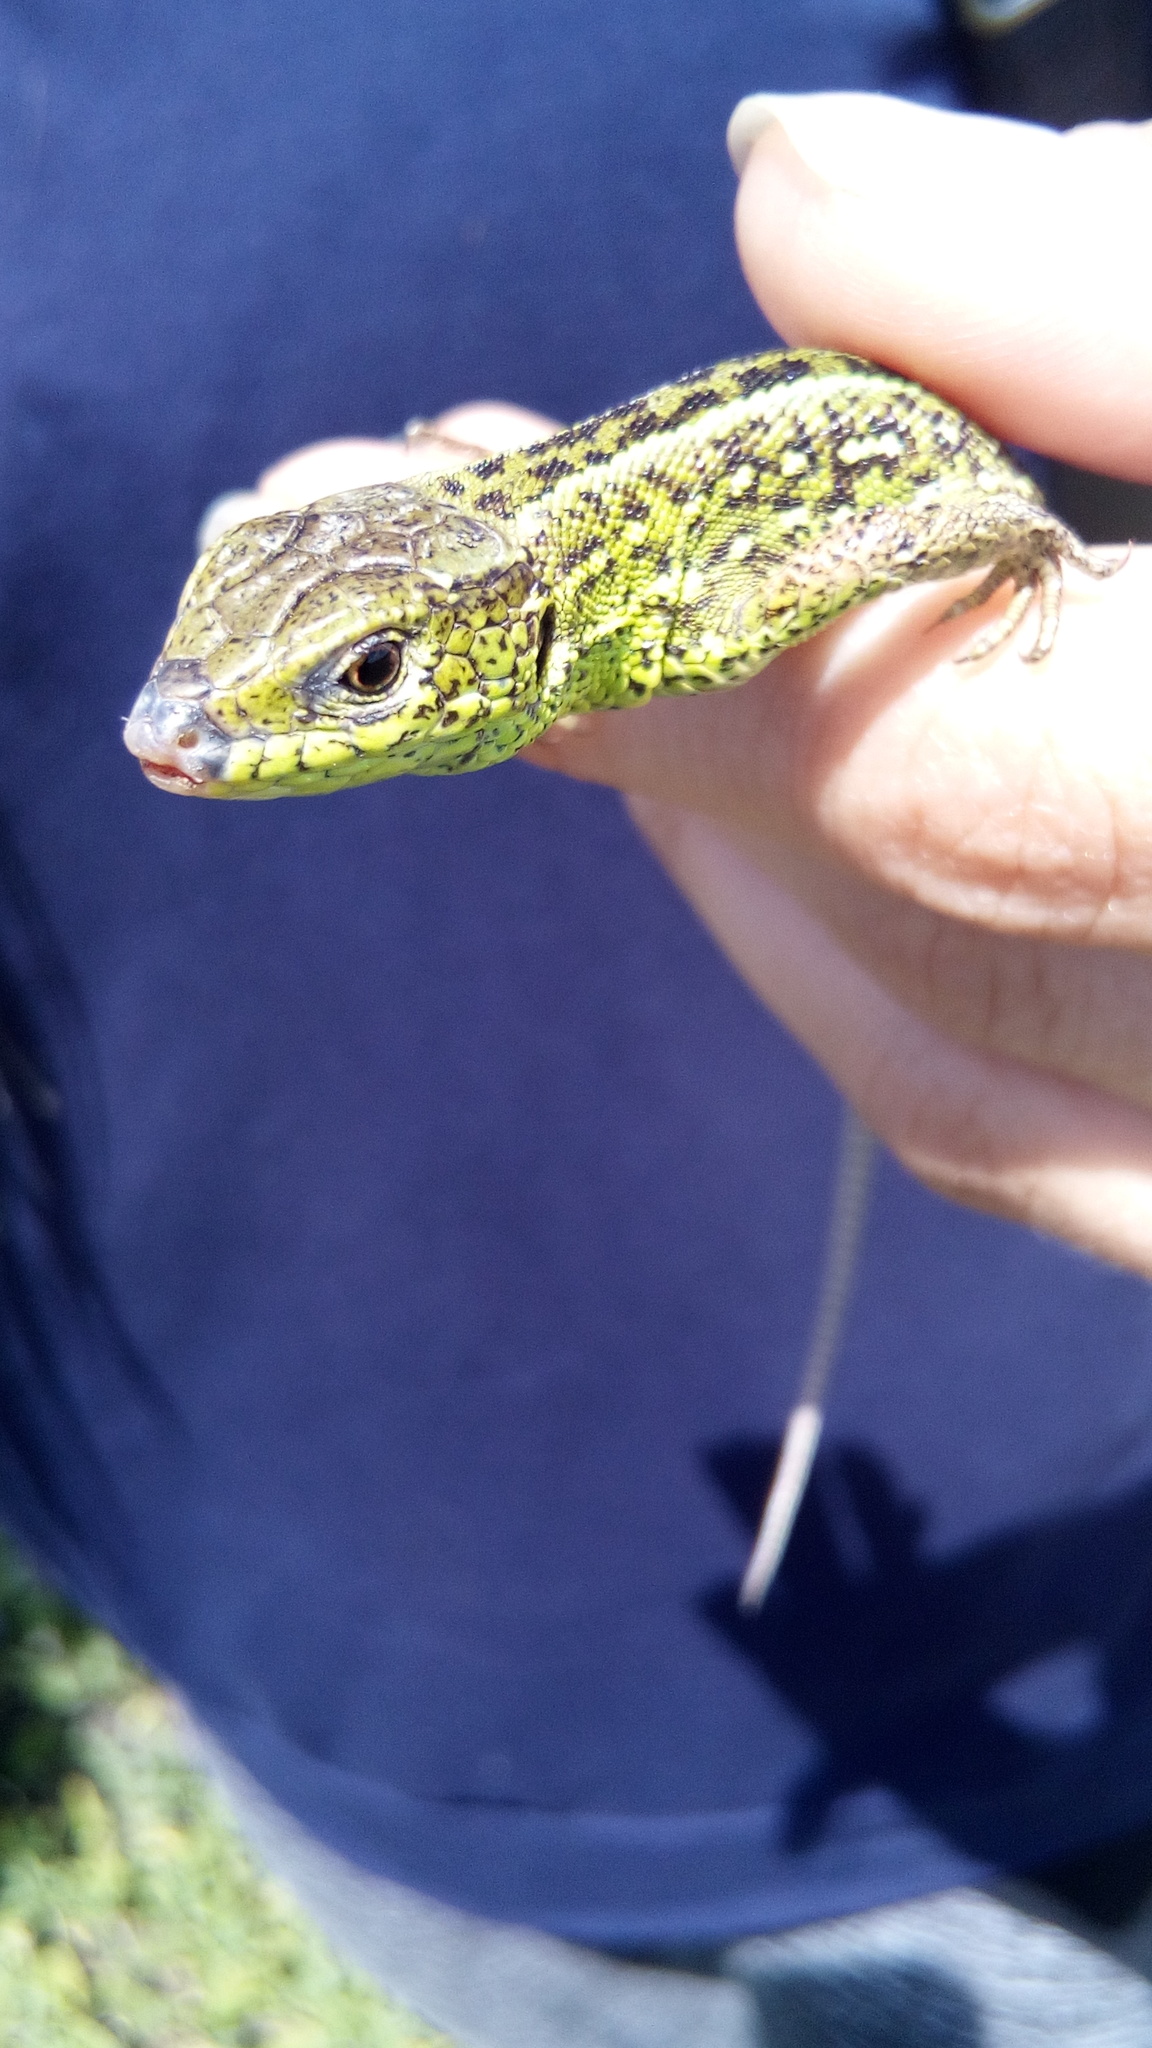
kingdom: Animalia
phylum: Chordata
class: Squamata
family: Lacertidae
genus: Lacerta
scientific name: Lacerta agilis
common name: Sand lizard
